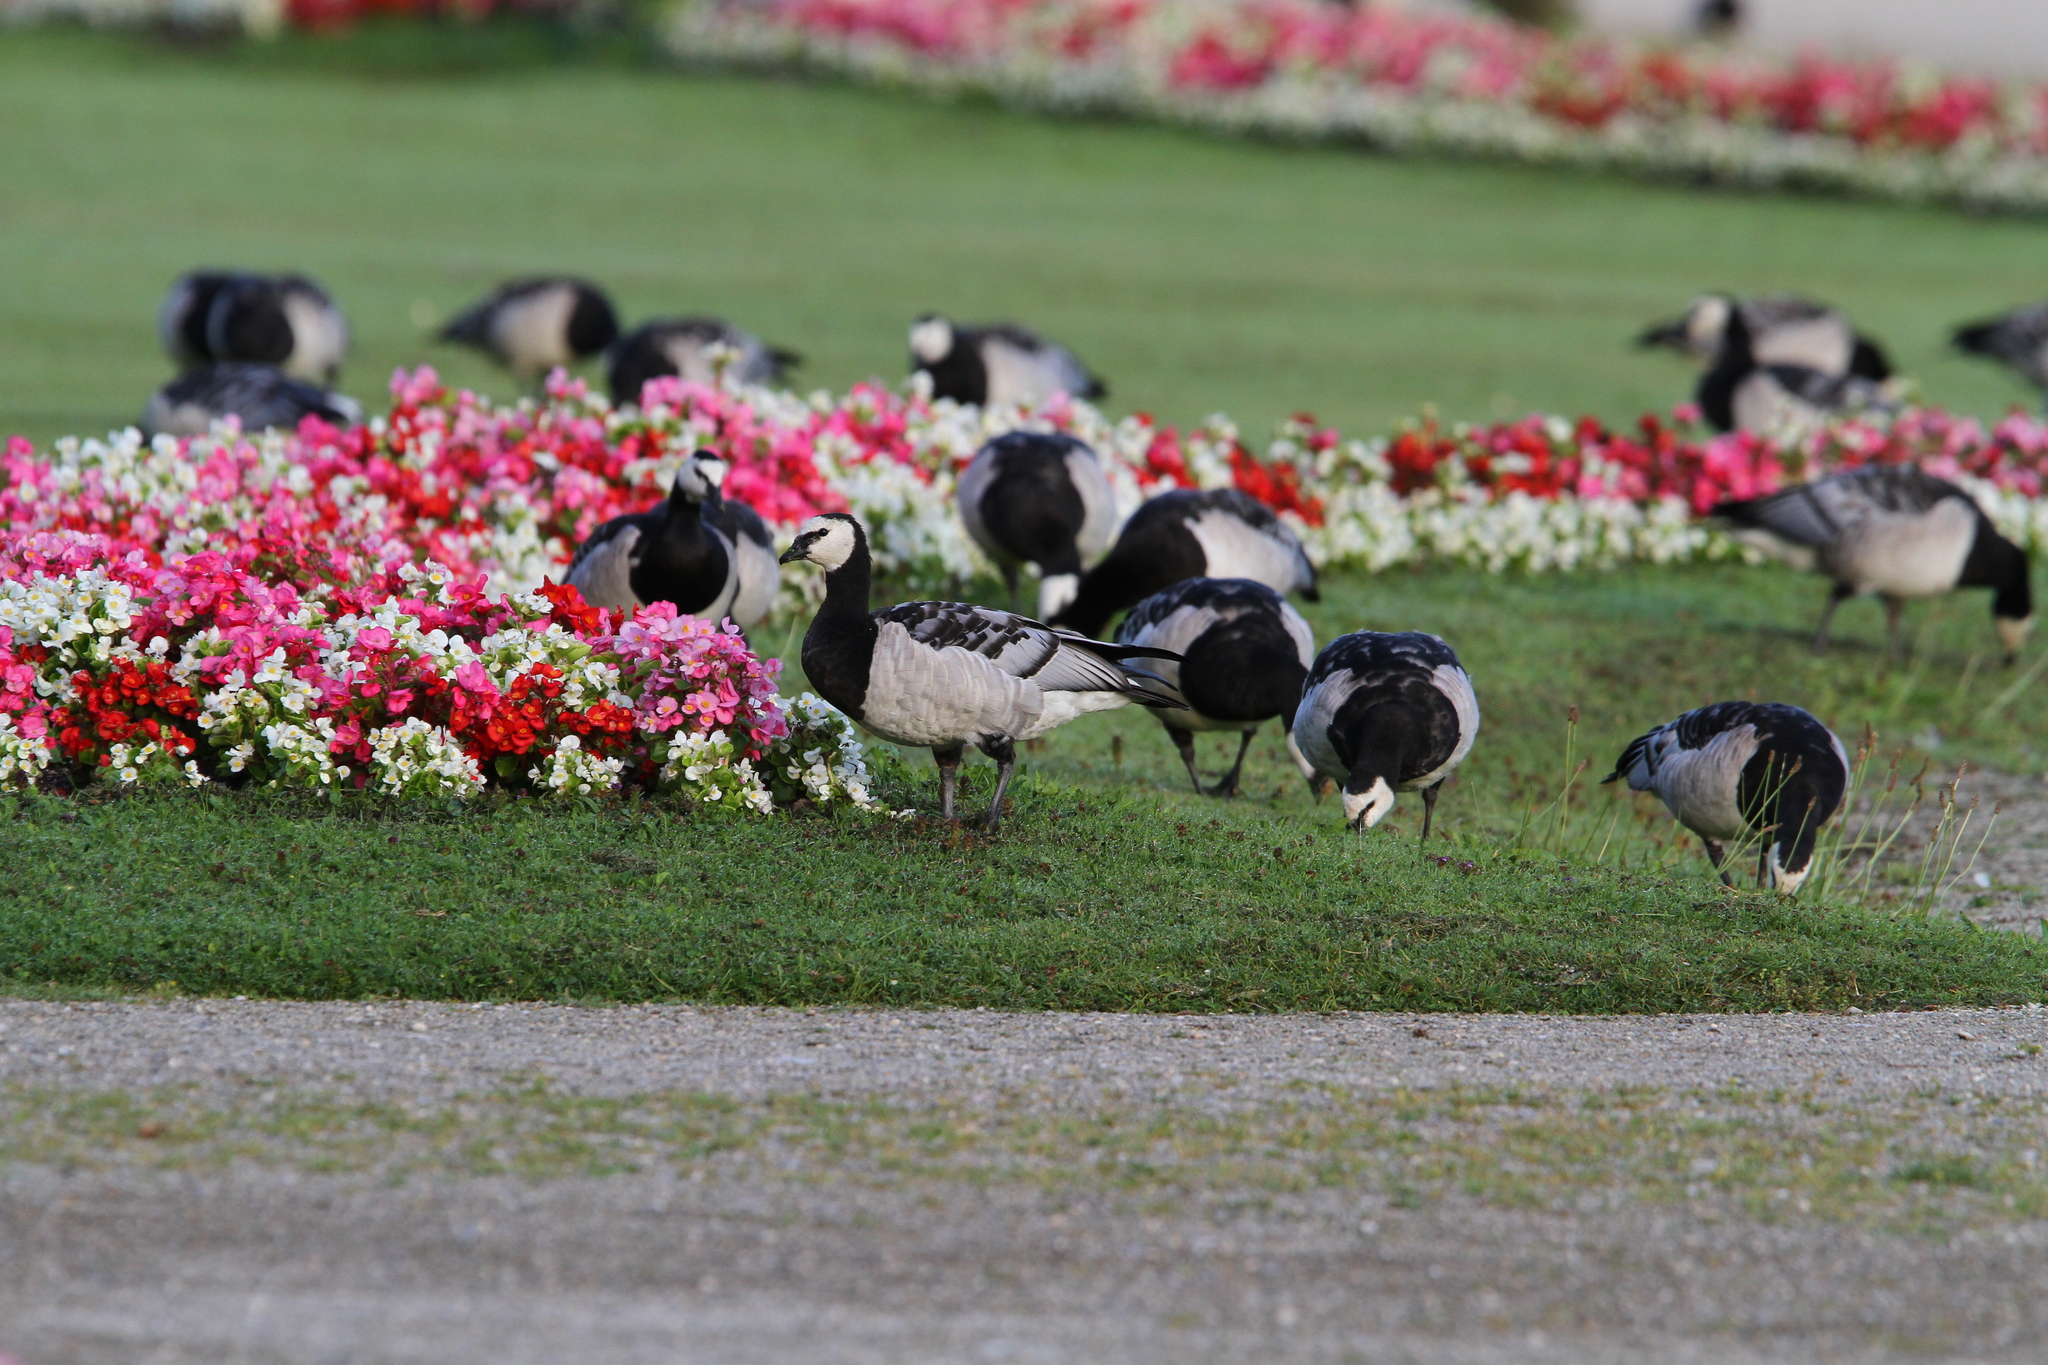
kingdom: Animalia
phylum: Chordata
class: Aves
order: Anseriformes
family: Anatidae
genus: Branta
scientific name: Branta leucopsis
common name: Barnacle goose
